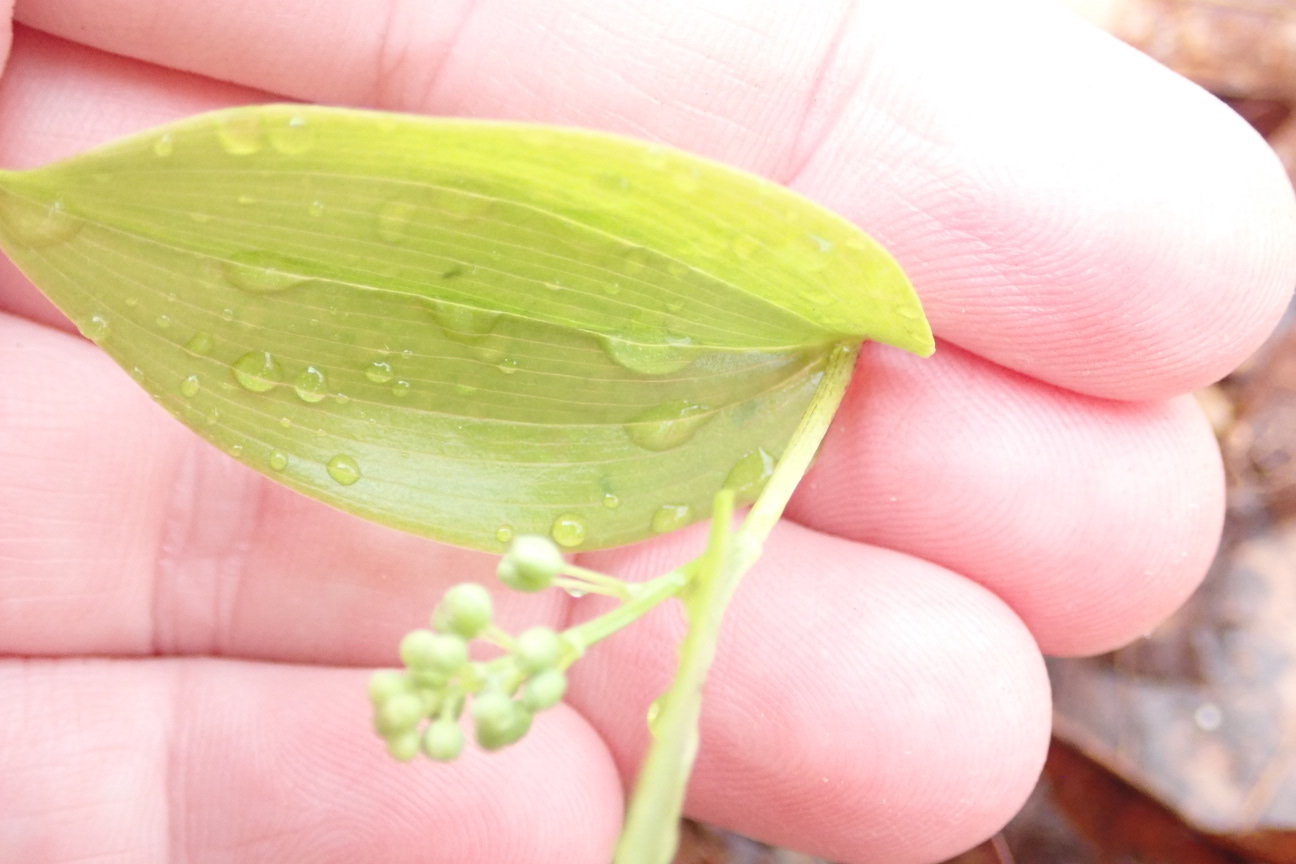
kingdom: Plantae
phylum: Tracheophyta
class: Liliopsida
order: Asparagales
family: Asparagaceae
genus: Maianthemum
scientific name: Maianthemum canadense
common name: False lily-of-the-valley
